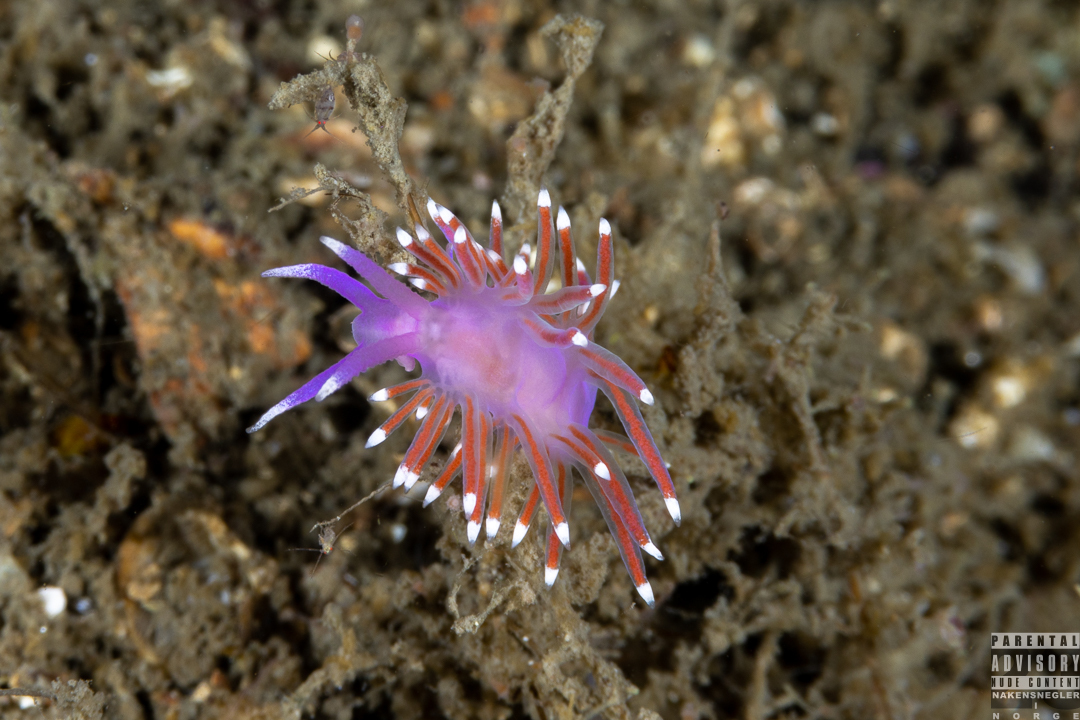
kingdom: Animalia
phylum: Mollusca
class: Gastropoda
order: Nudibranchia
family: Flabellinidae
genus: Edmundsella
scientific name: Edmundsella pedata
